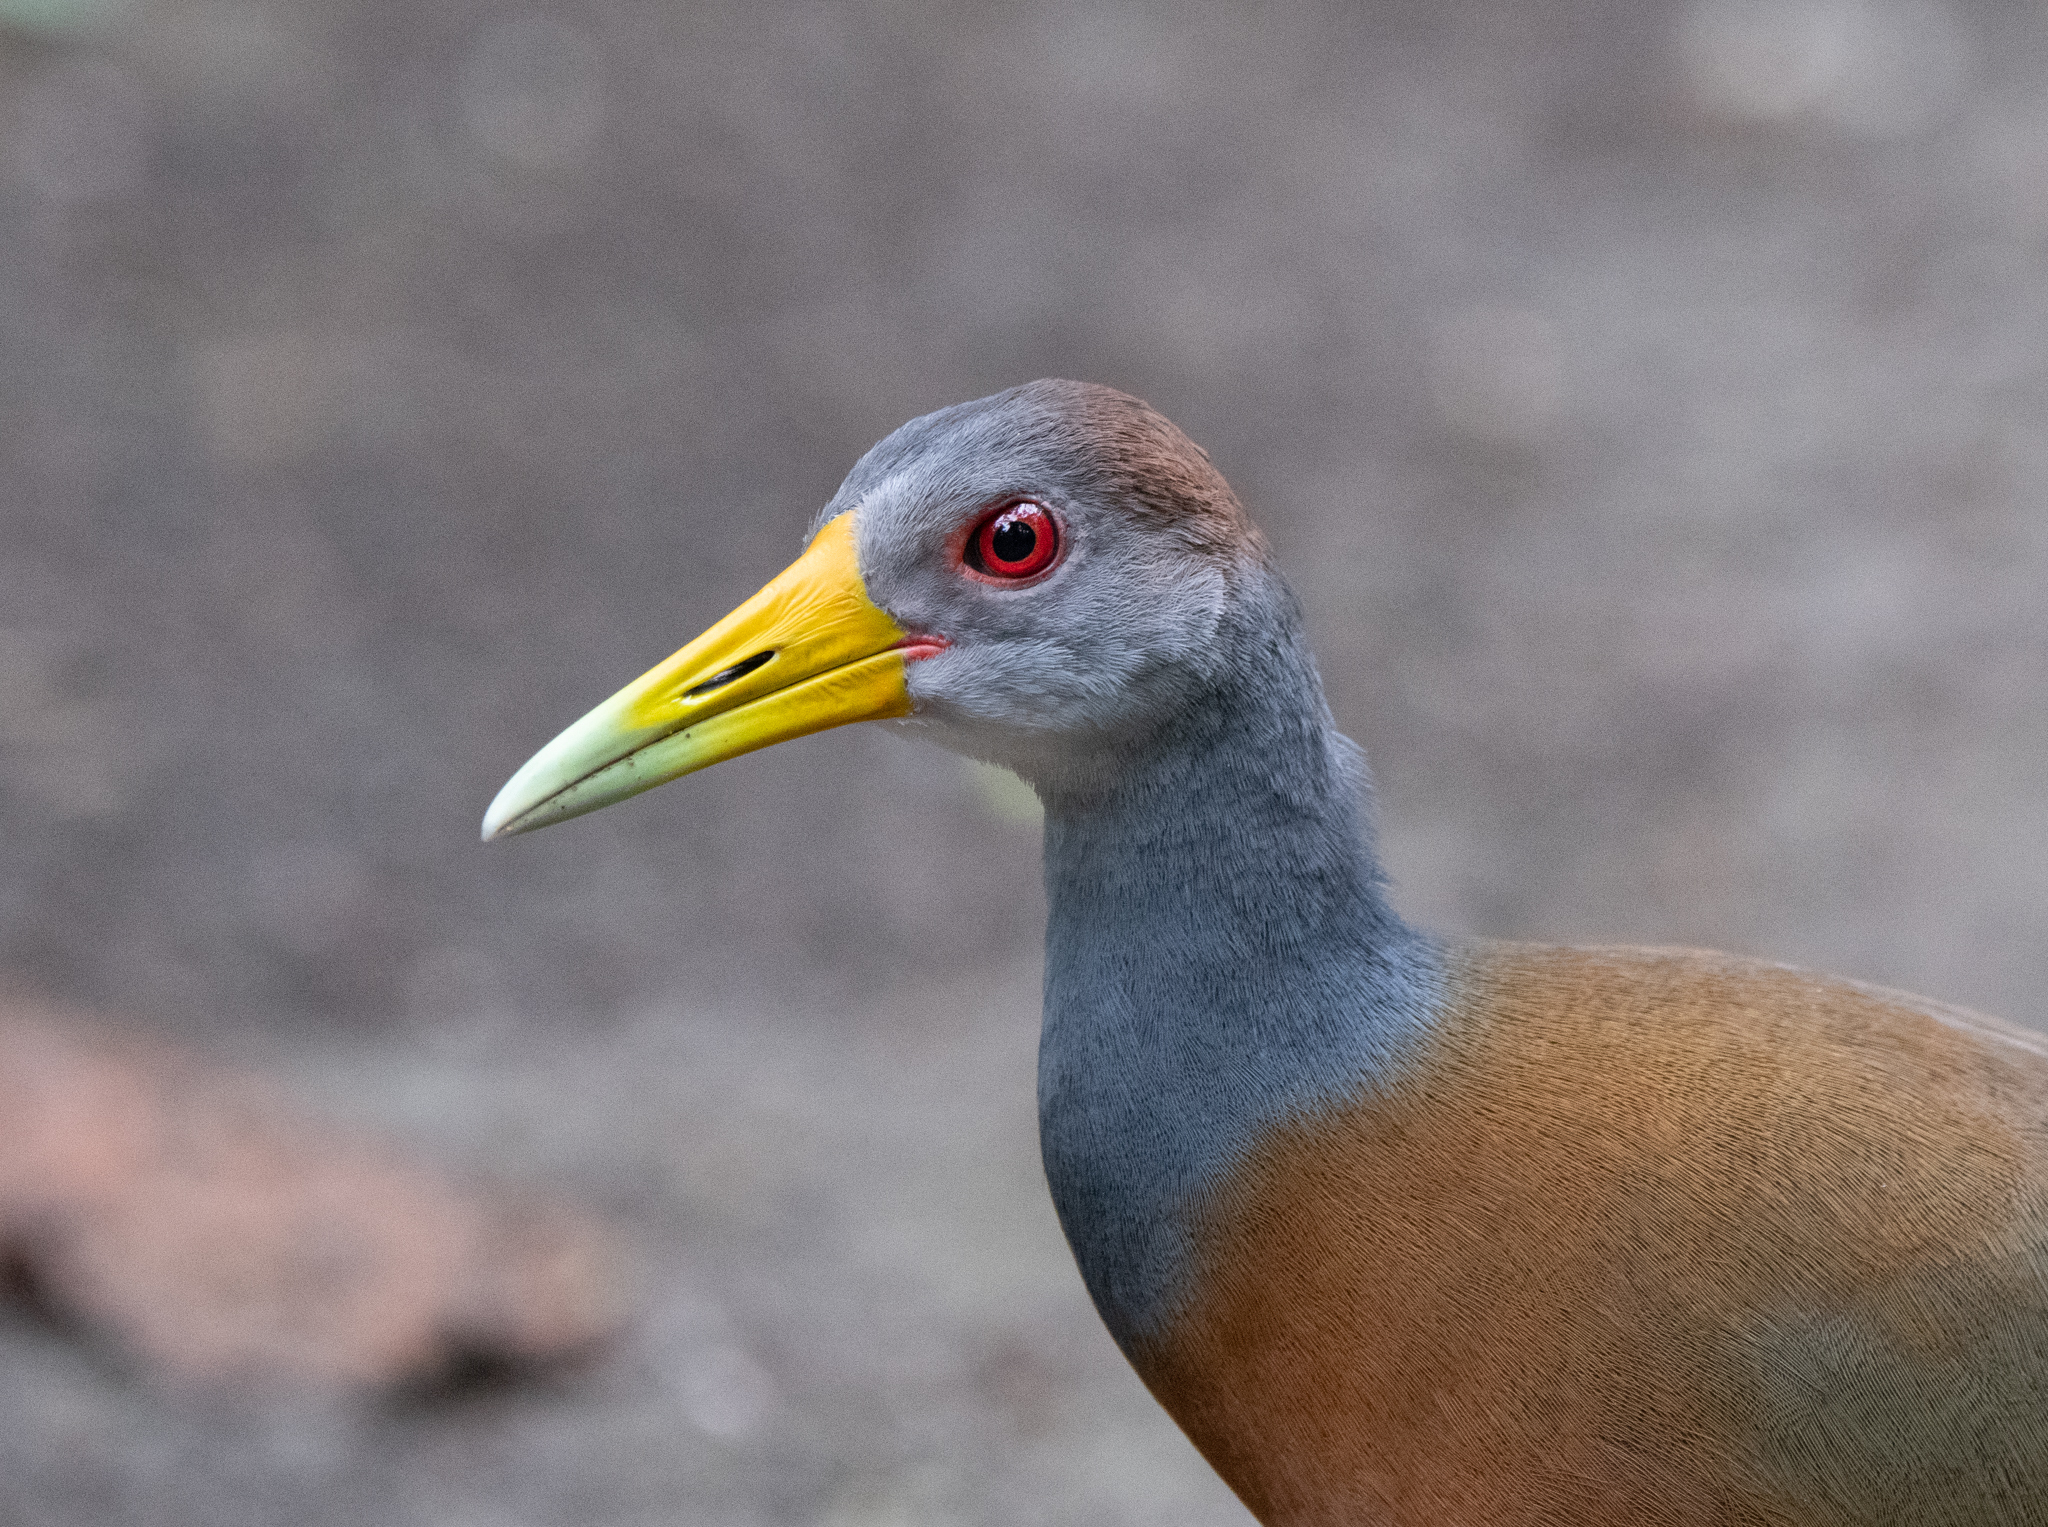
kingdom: Animalia
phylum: Chordata
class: Aves
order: Gruiformes
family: Rallidae
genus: Aramides
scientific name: Aramides albiventris
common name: Russet-naped wood-rail
